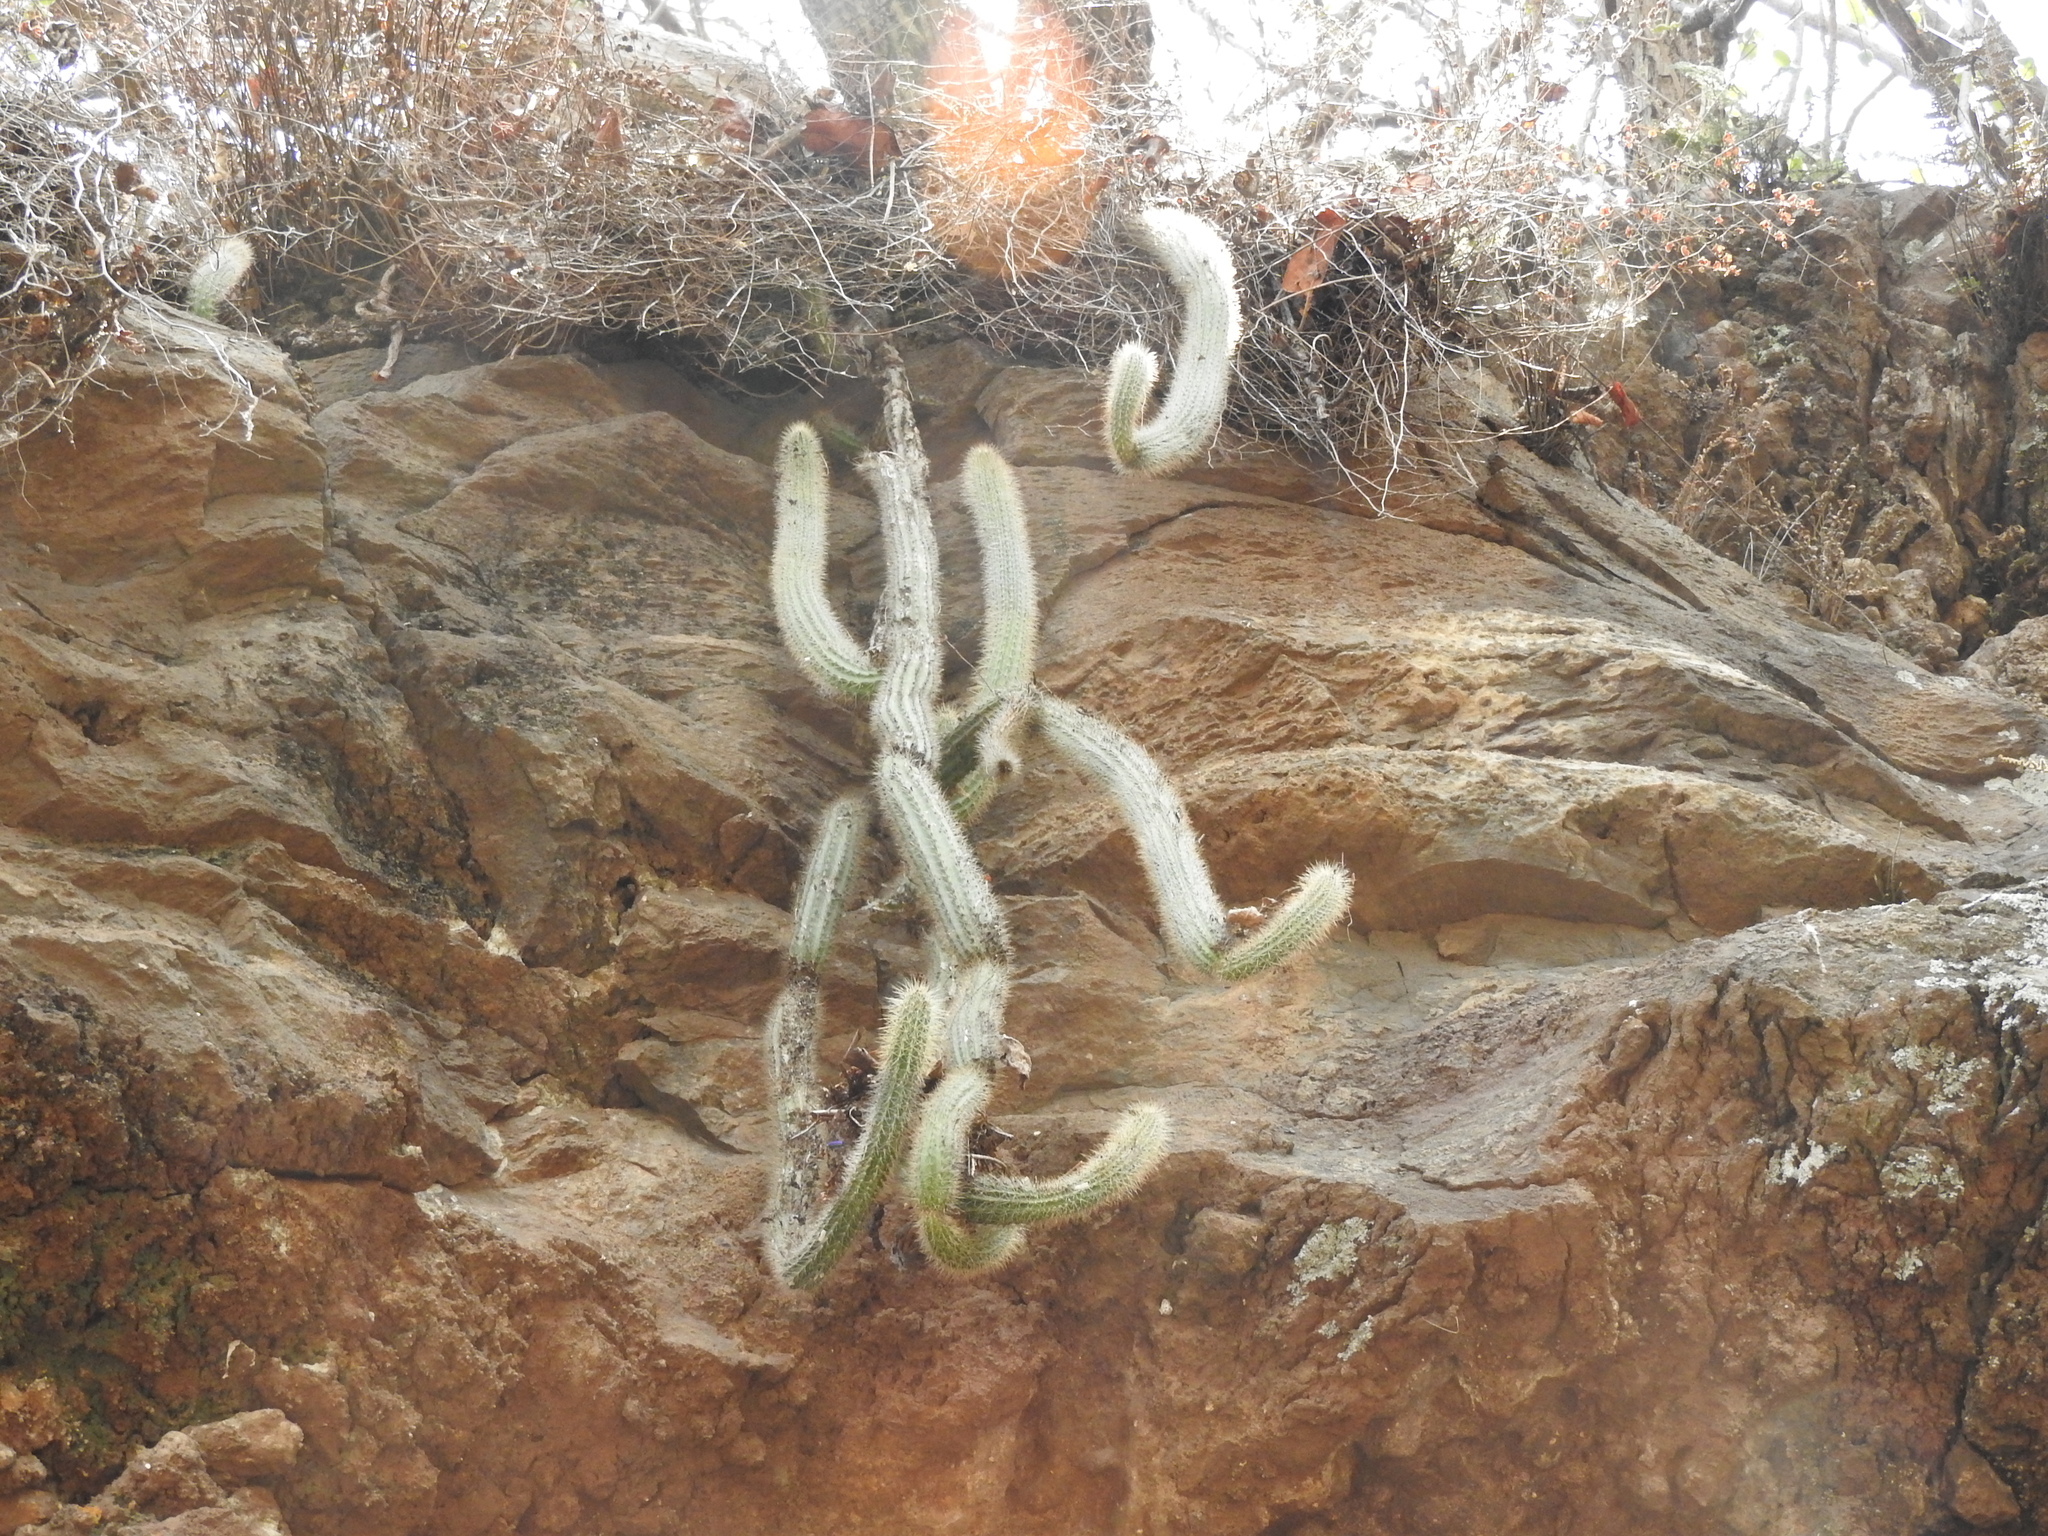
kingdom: Plantae
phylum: Tracheophyta
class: Magnoliopsida
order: Caryophyllales
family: Cactaceae
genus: Peniocereus
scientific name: Peniocereus serpentinus
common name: Serpent cactus
